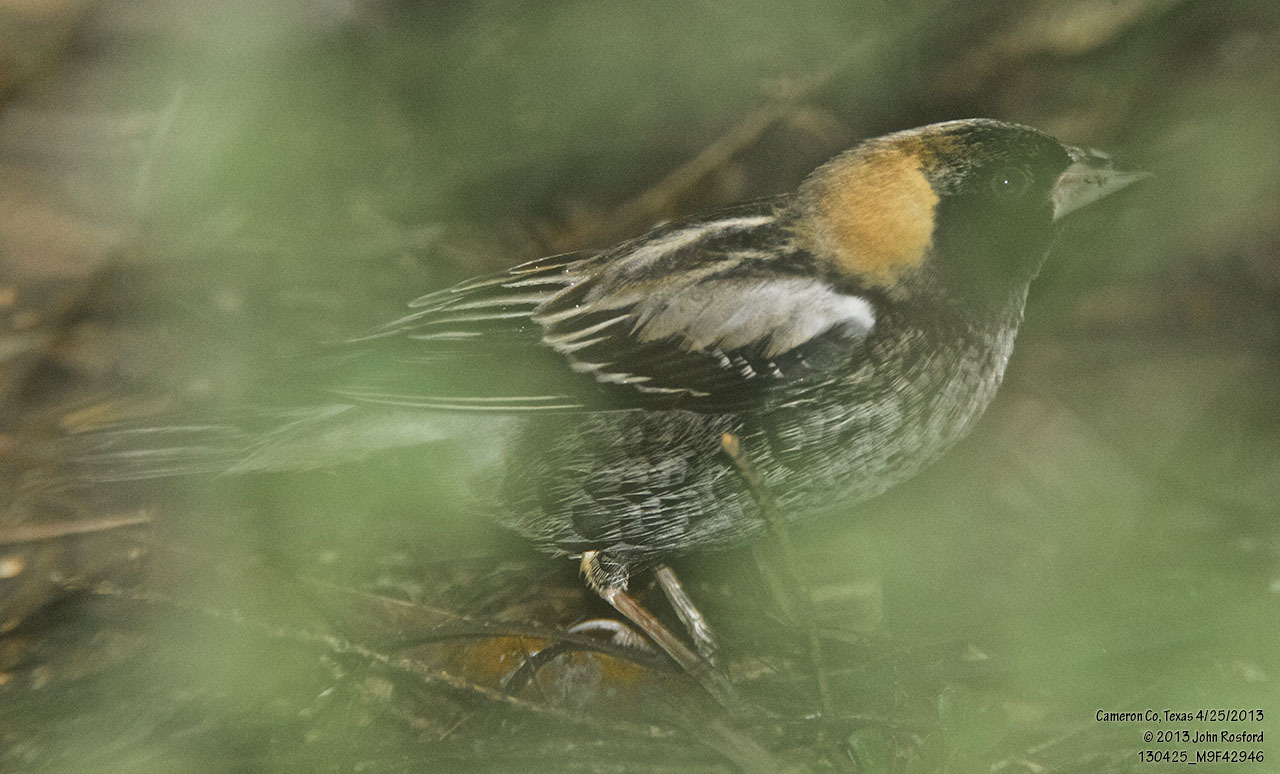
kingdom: Animalia
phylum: Chordata
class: Aves
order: Passeriformes
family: Icteridae
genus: Dolichonyx
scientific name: Dolichonyx oryzivorus
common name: Bobolink
